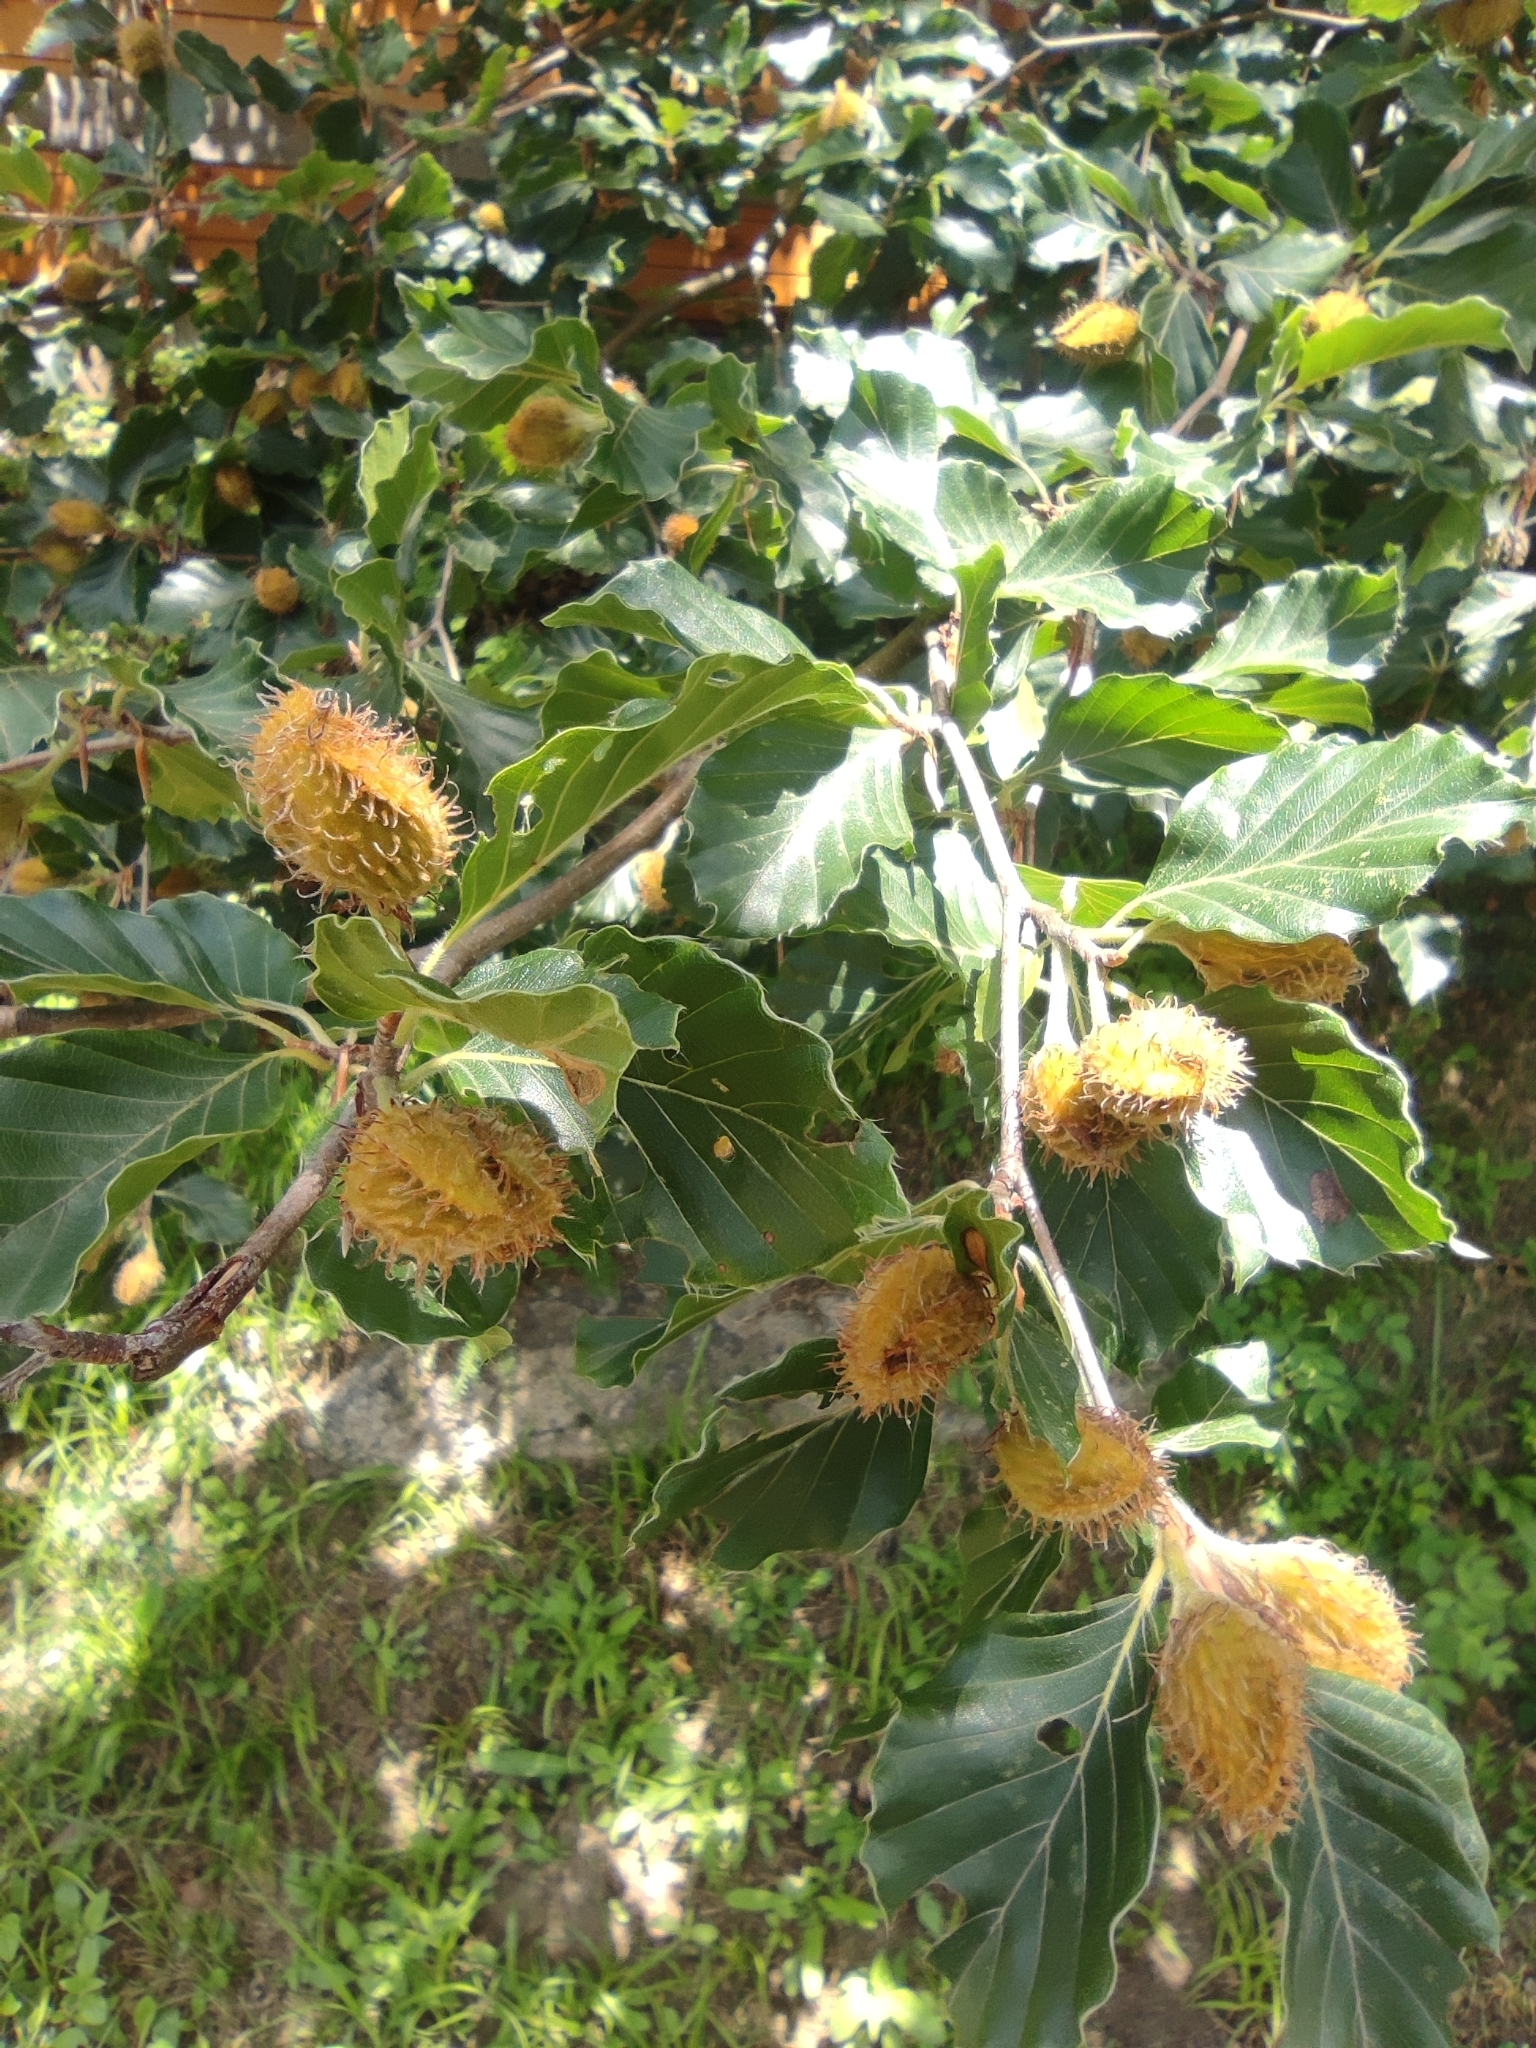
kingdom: Plantae
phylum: Tracheophyta
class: Magnoliopsida
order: Fagales
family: Fagaceae
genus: Fagus
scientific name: Fagus sylvatica
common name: Beech
